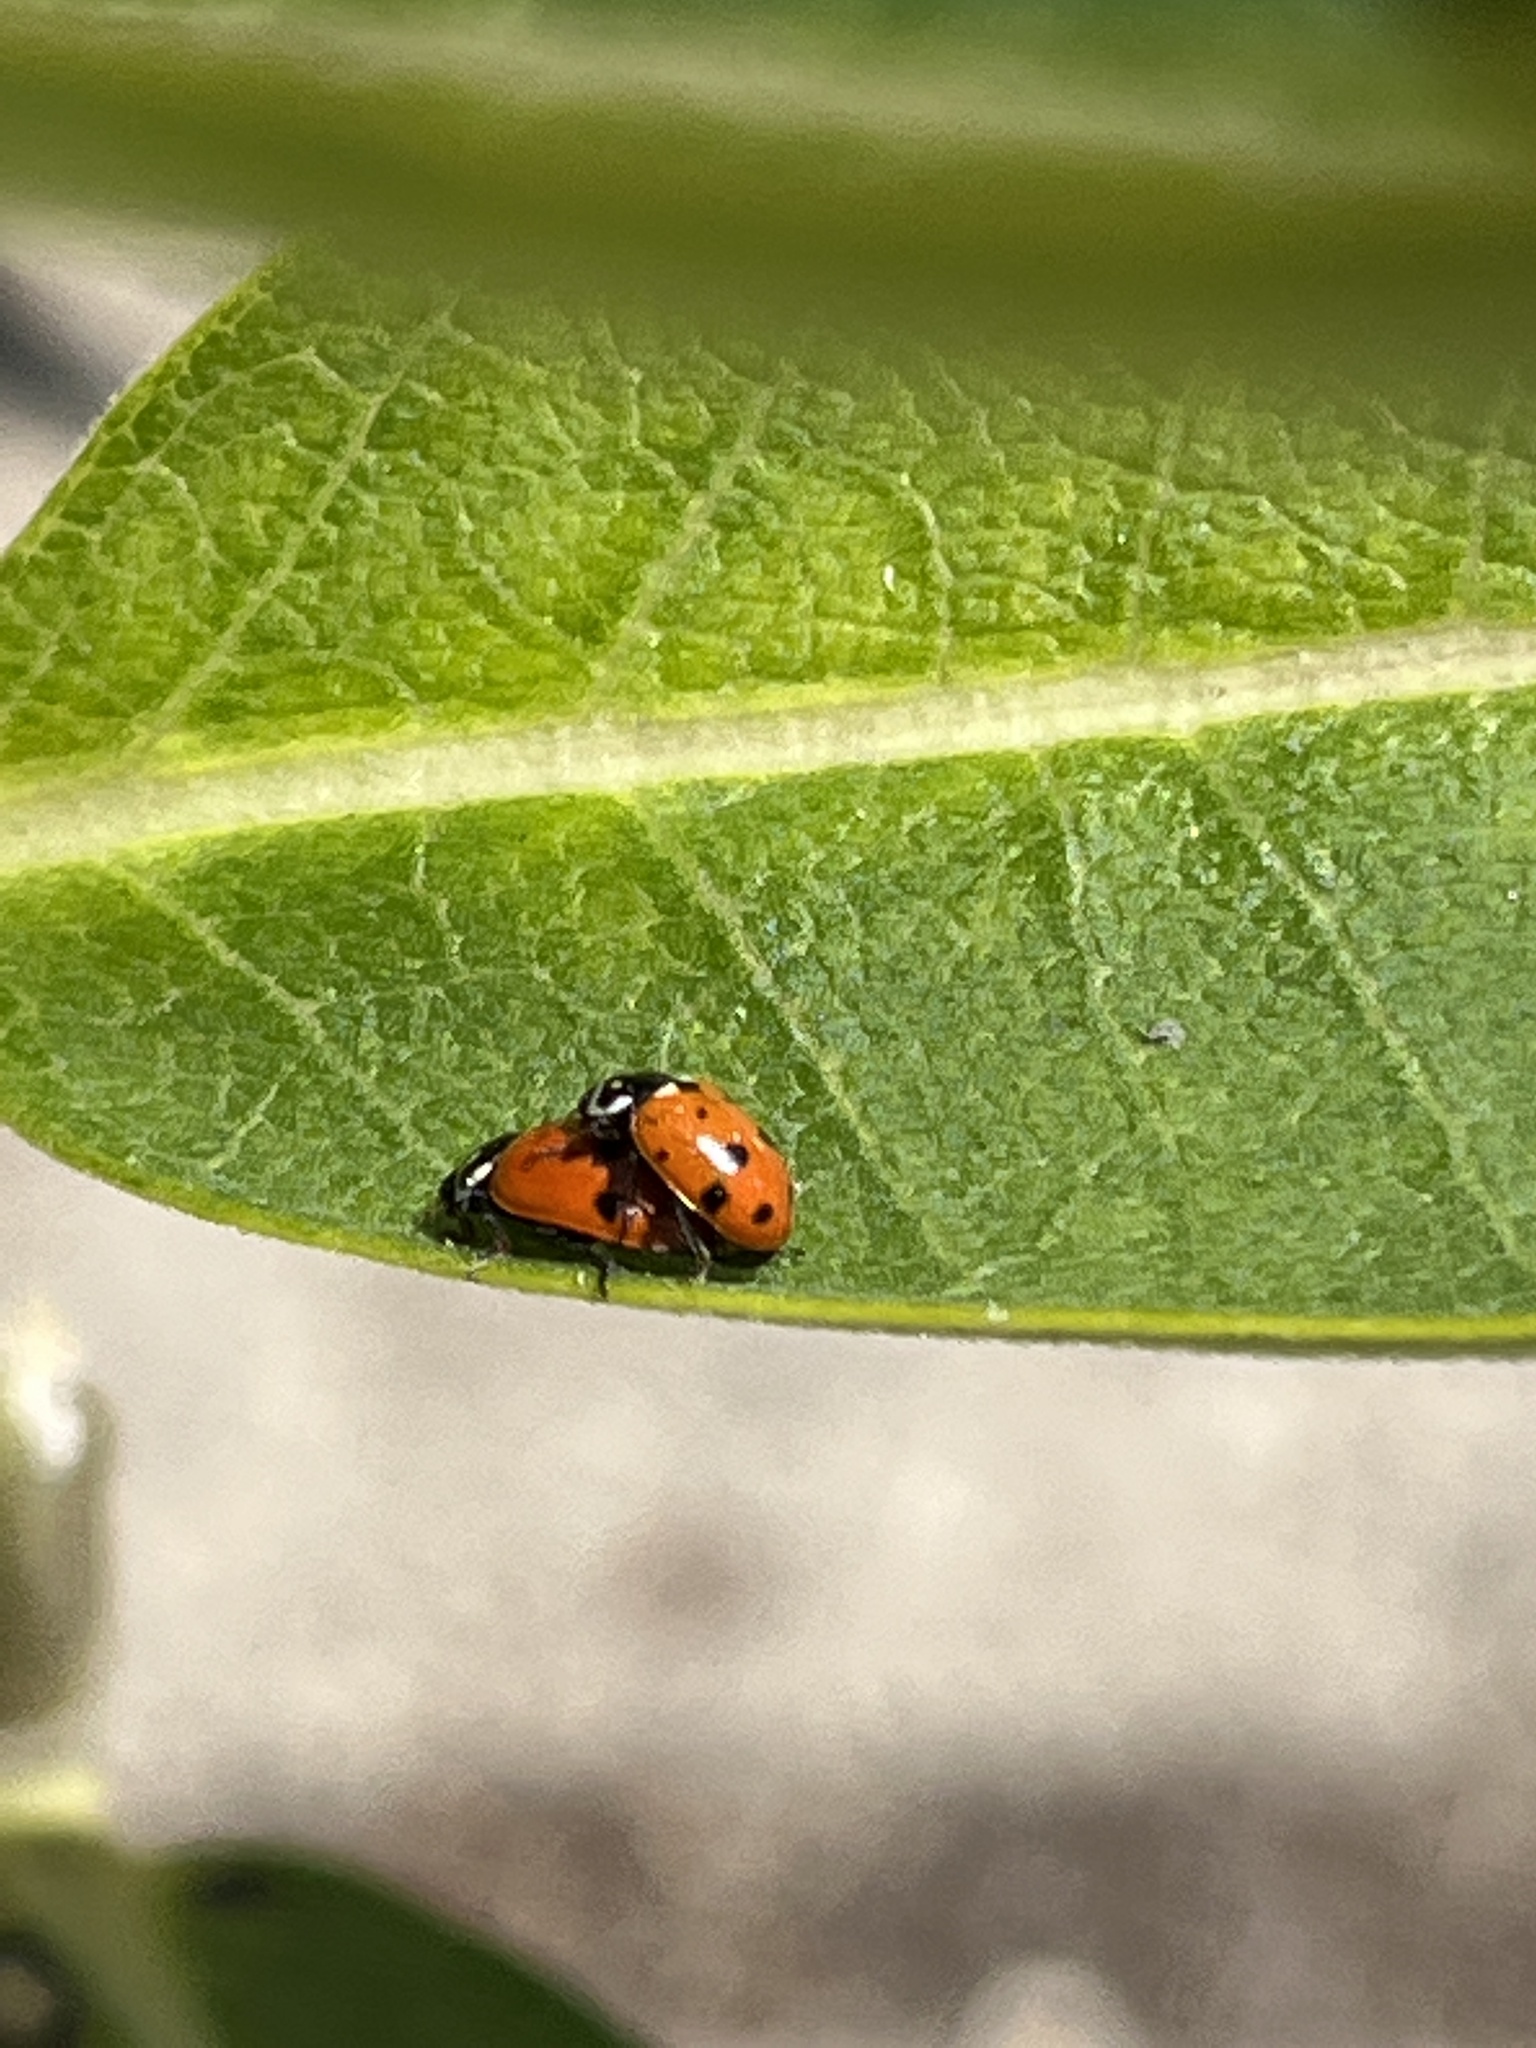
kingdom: Animalia
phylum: Arthropoda
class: Insecta
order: Coleoptera
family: Coccinellidae
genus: Hippodamia
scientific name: Hippodamia variegata
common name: Ladybird beetle
